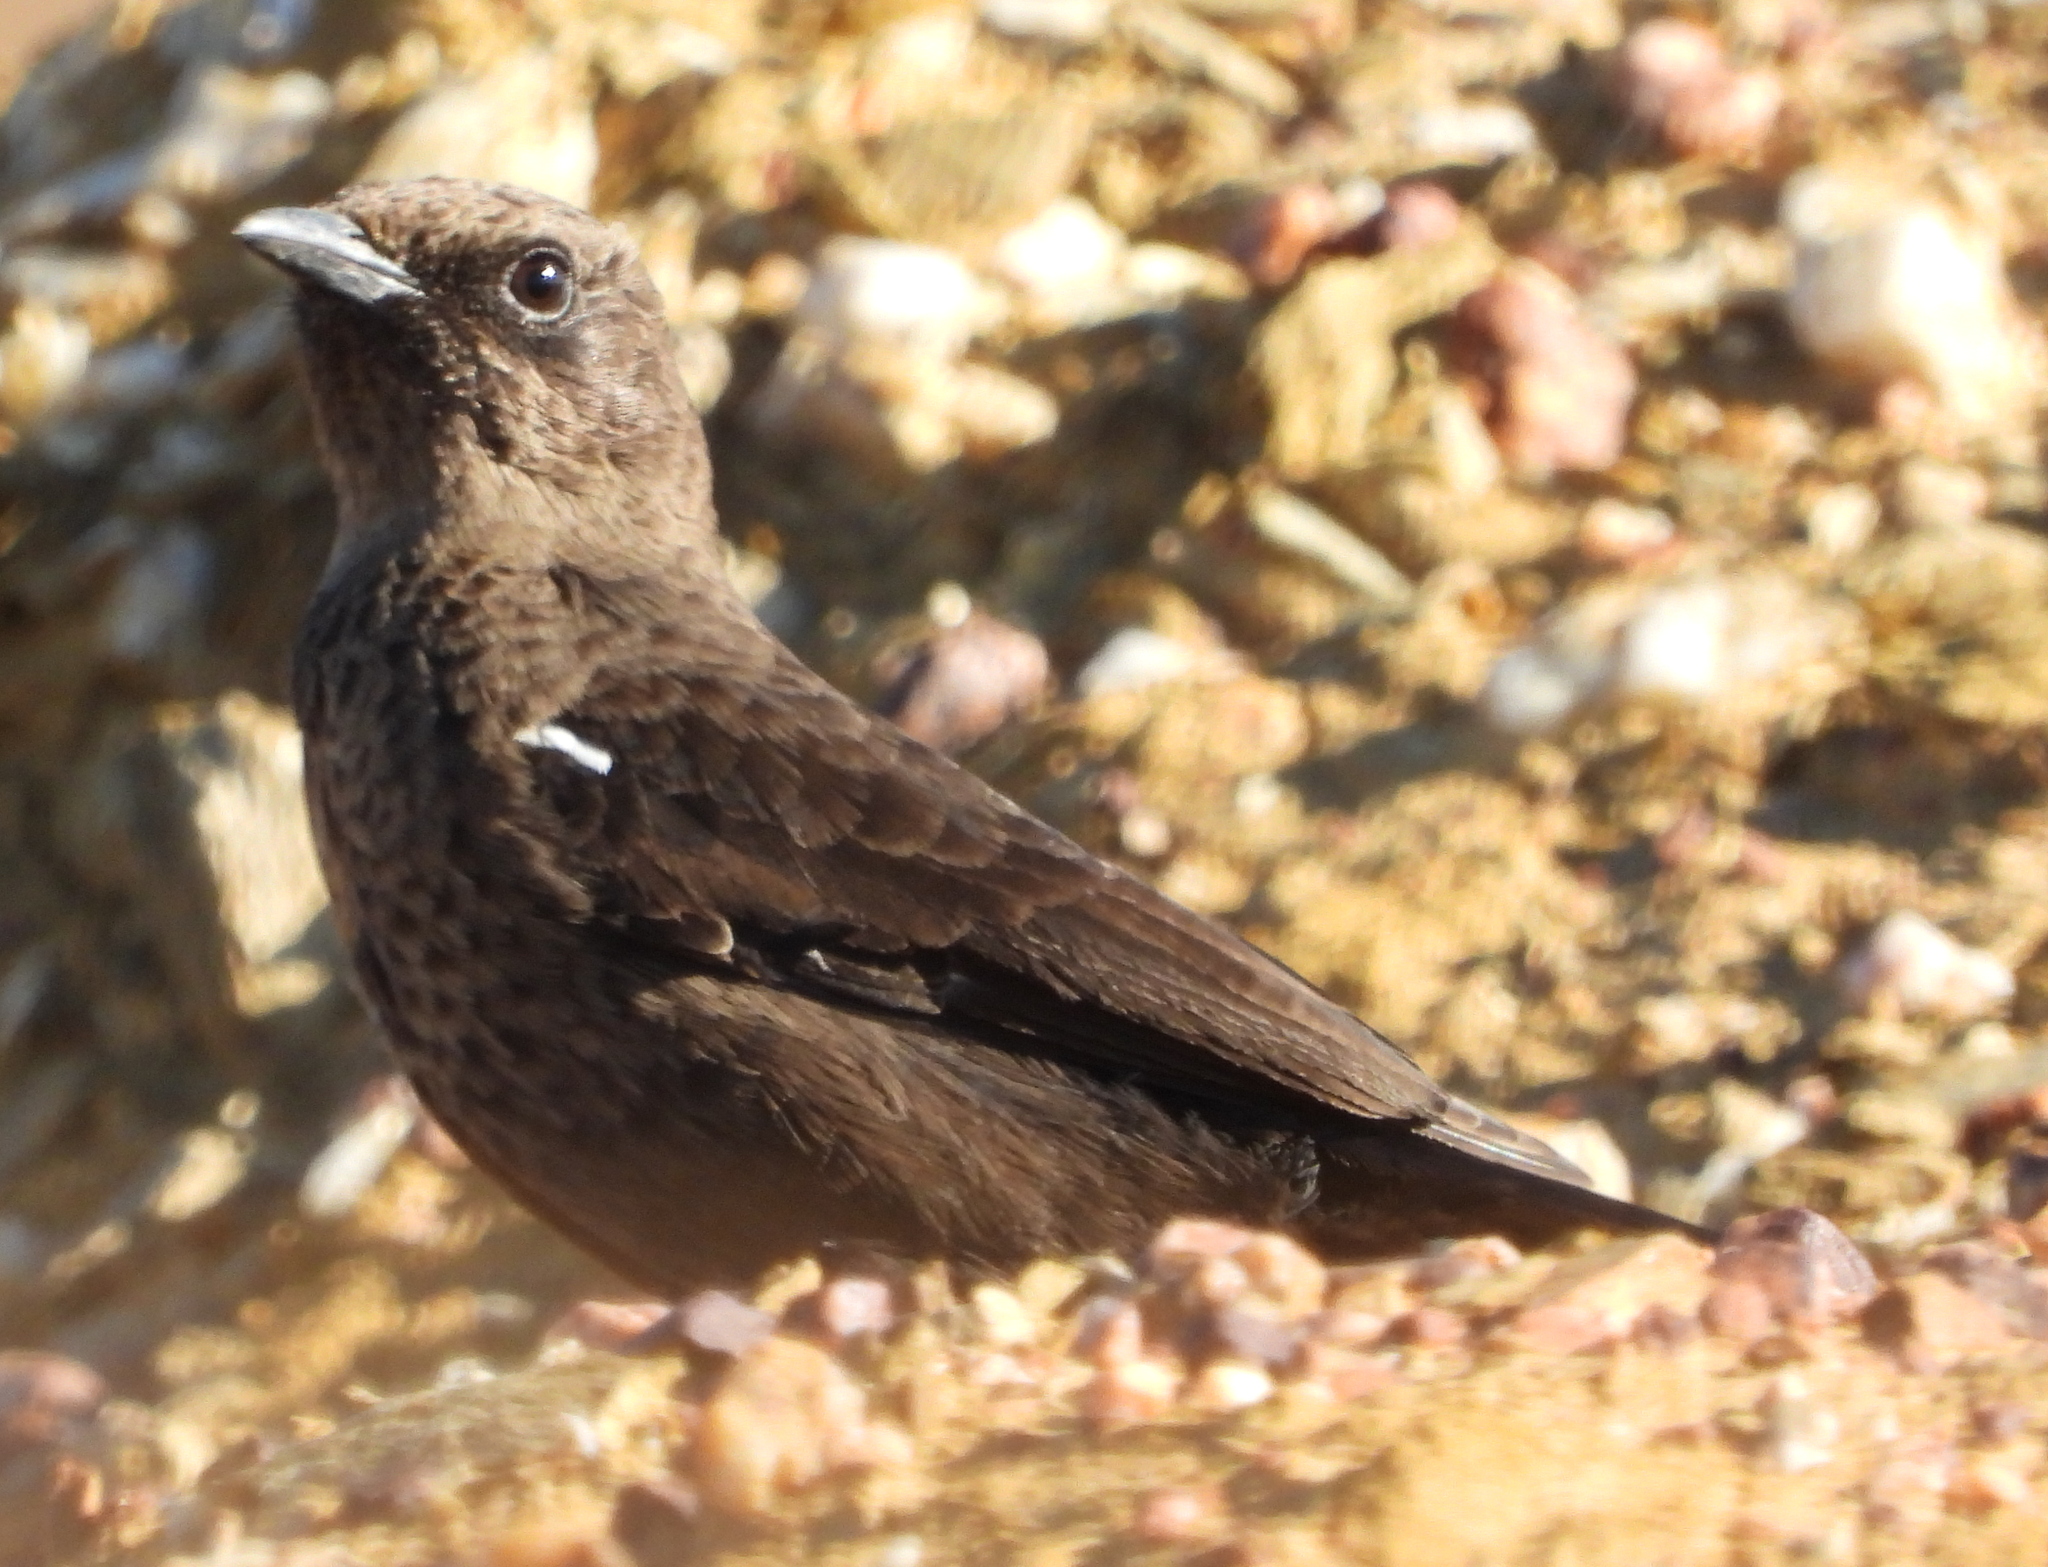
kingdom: Animalia
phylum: Chordata
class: Aves
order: Passeriformes
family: Muscicapidae
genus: Myrmecocichla
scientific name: Myrmecocichla formicivora
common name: Ant-eating chat
